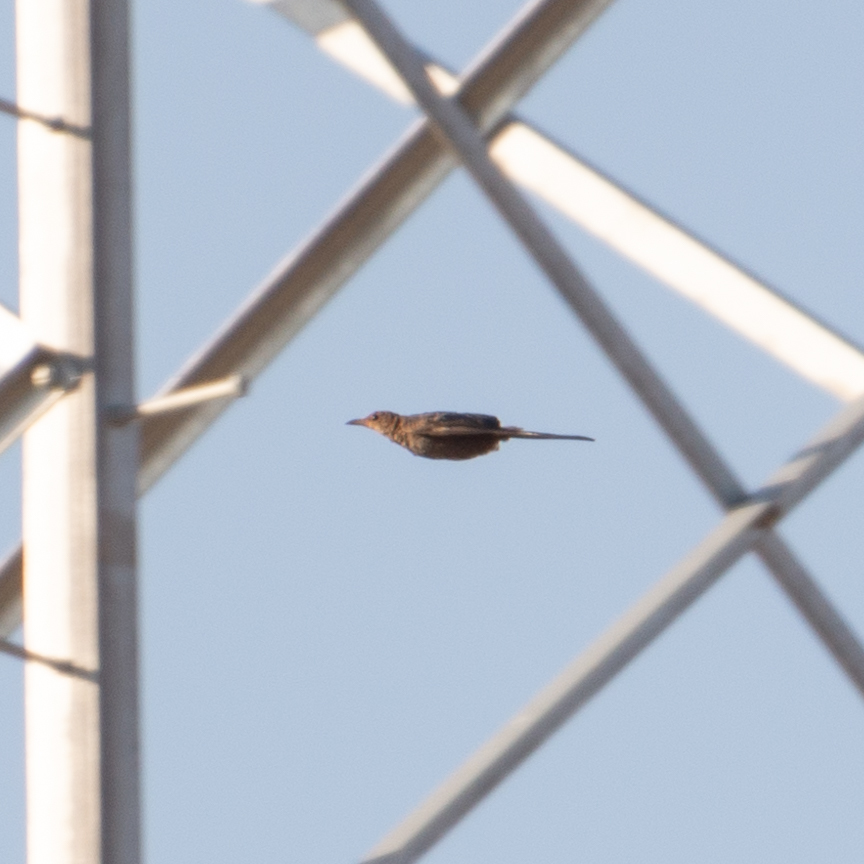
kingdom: Animalia
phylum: Chordata
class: Aves
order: Passeriformes
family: Turdidae
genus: Turdus
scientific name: Turdus merula
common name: Common blackbird
